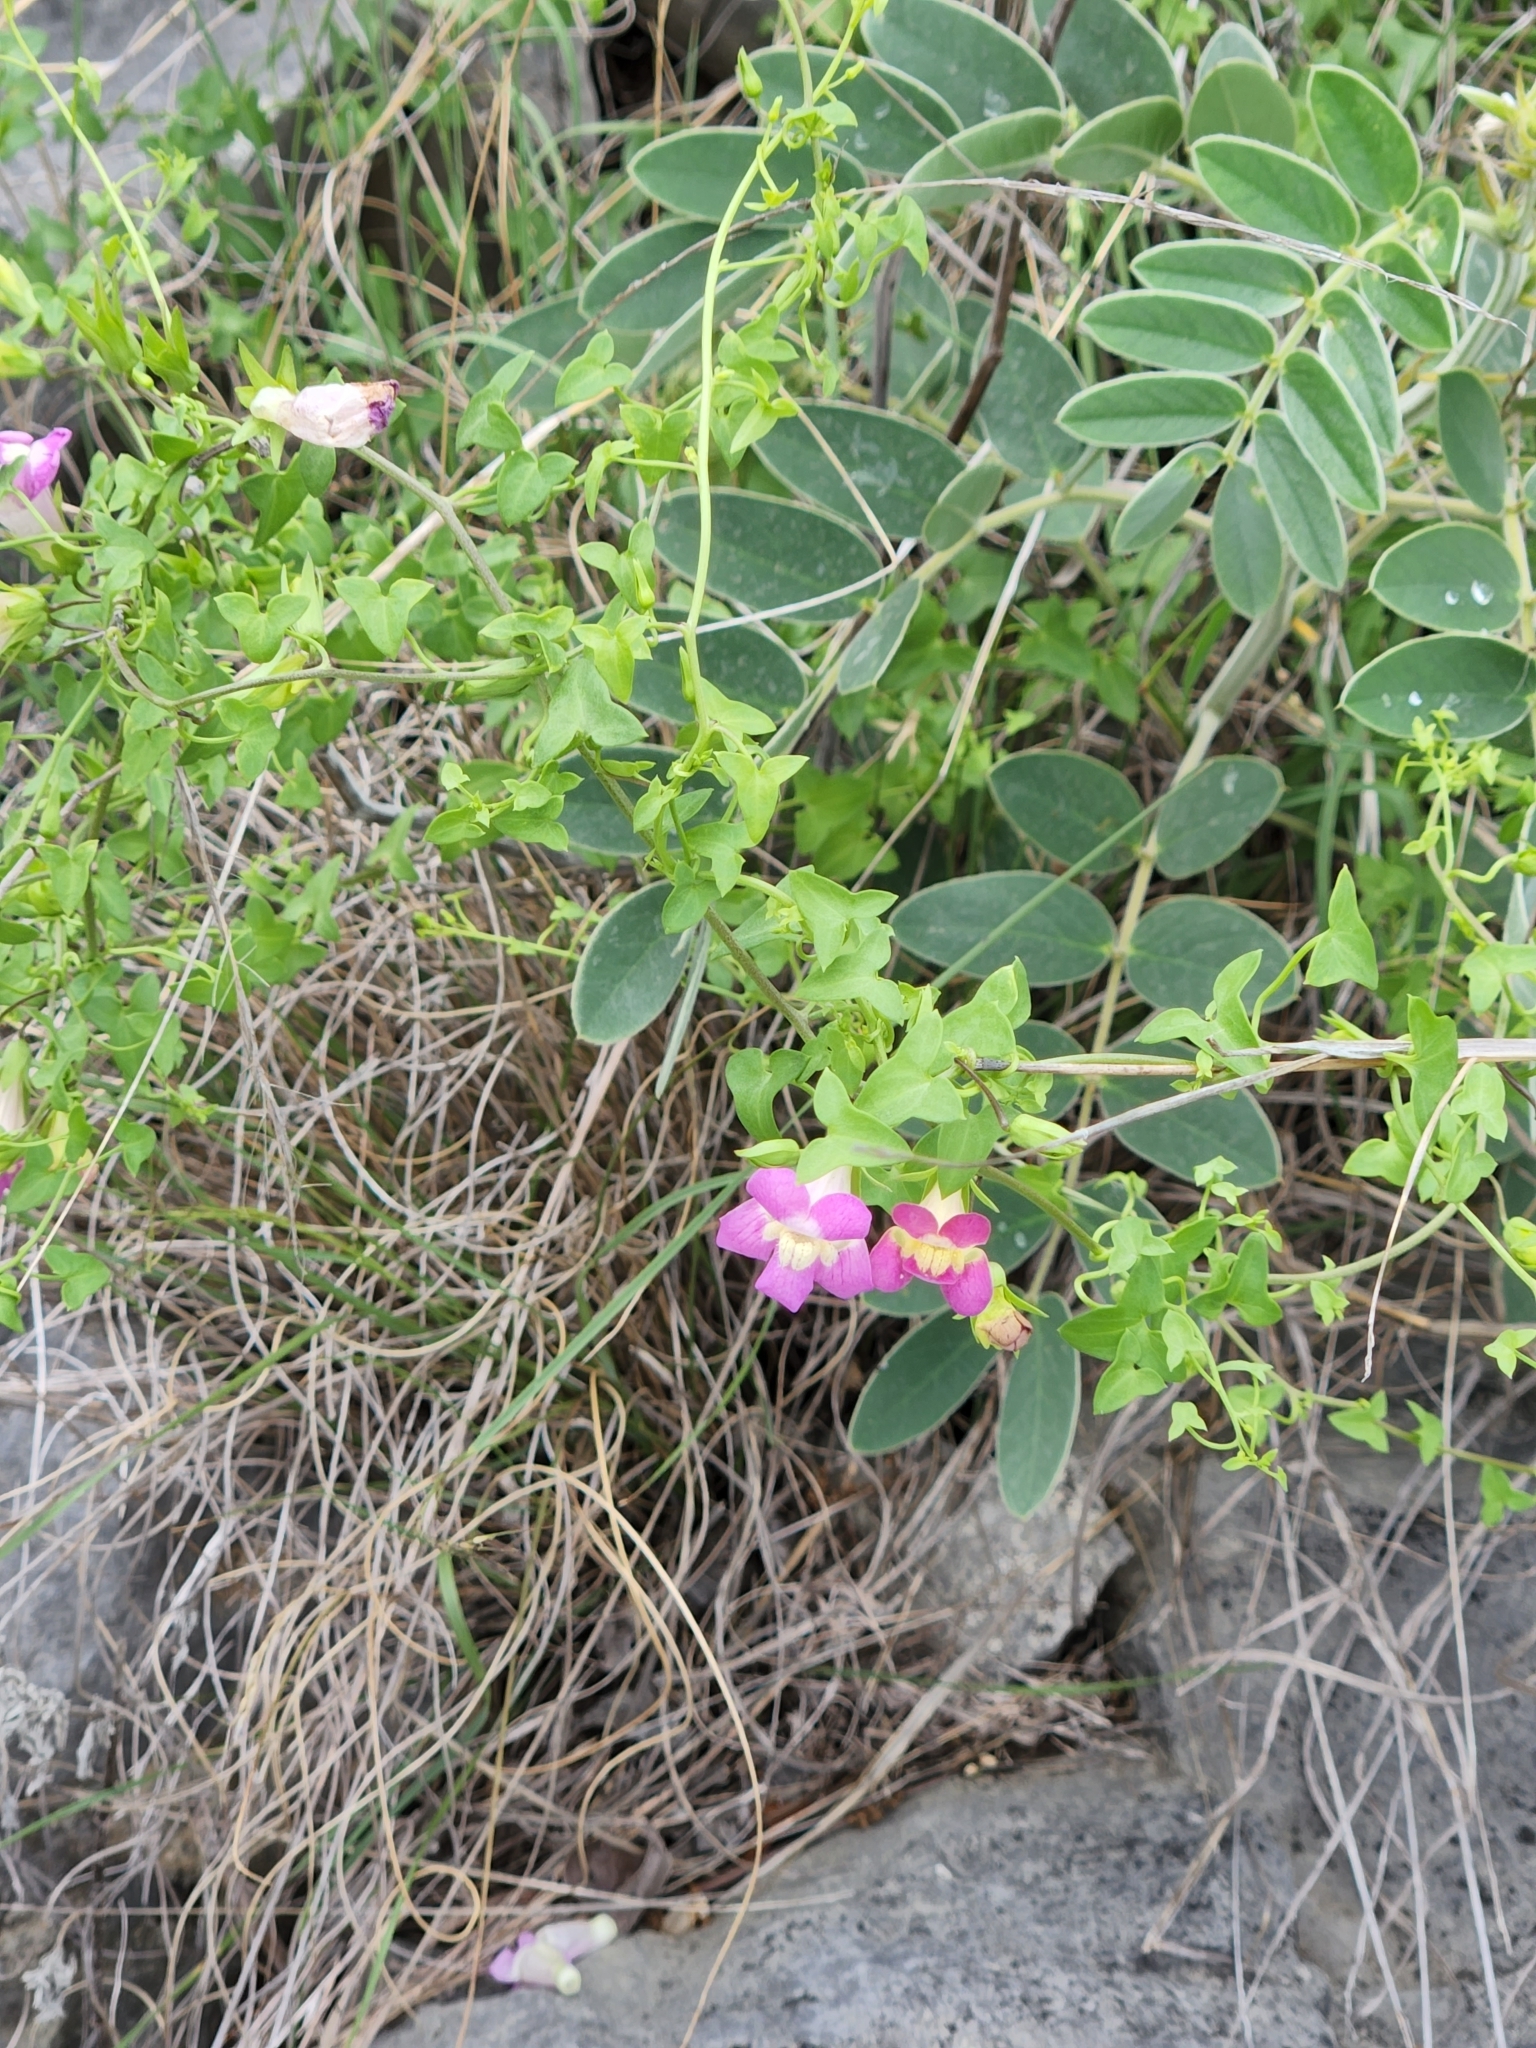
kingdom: Plantae
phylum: Tracheophyta
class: Magnoliopsida
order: Lamiales
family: Plantaginaceae
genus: Maurandella
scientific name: Maurandella antirrhiniflora
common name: Violet twining-snapdragon
